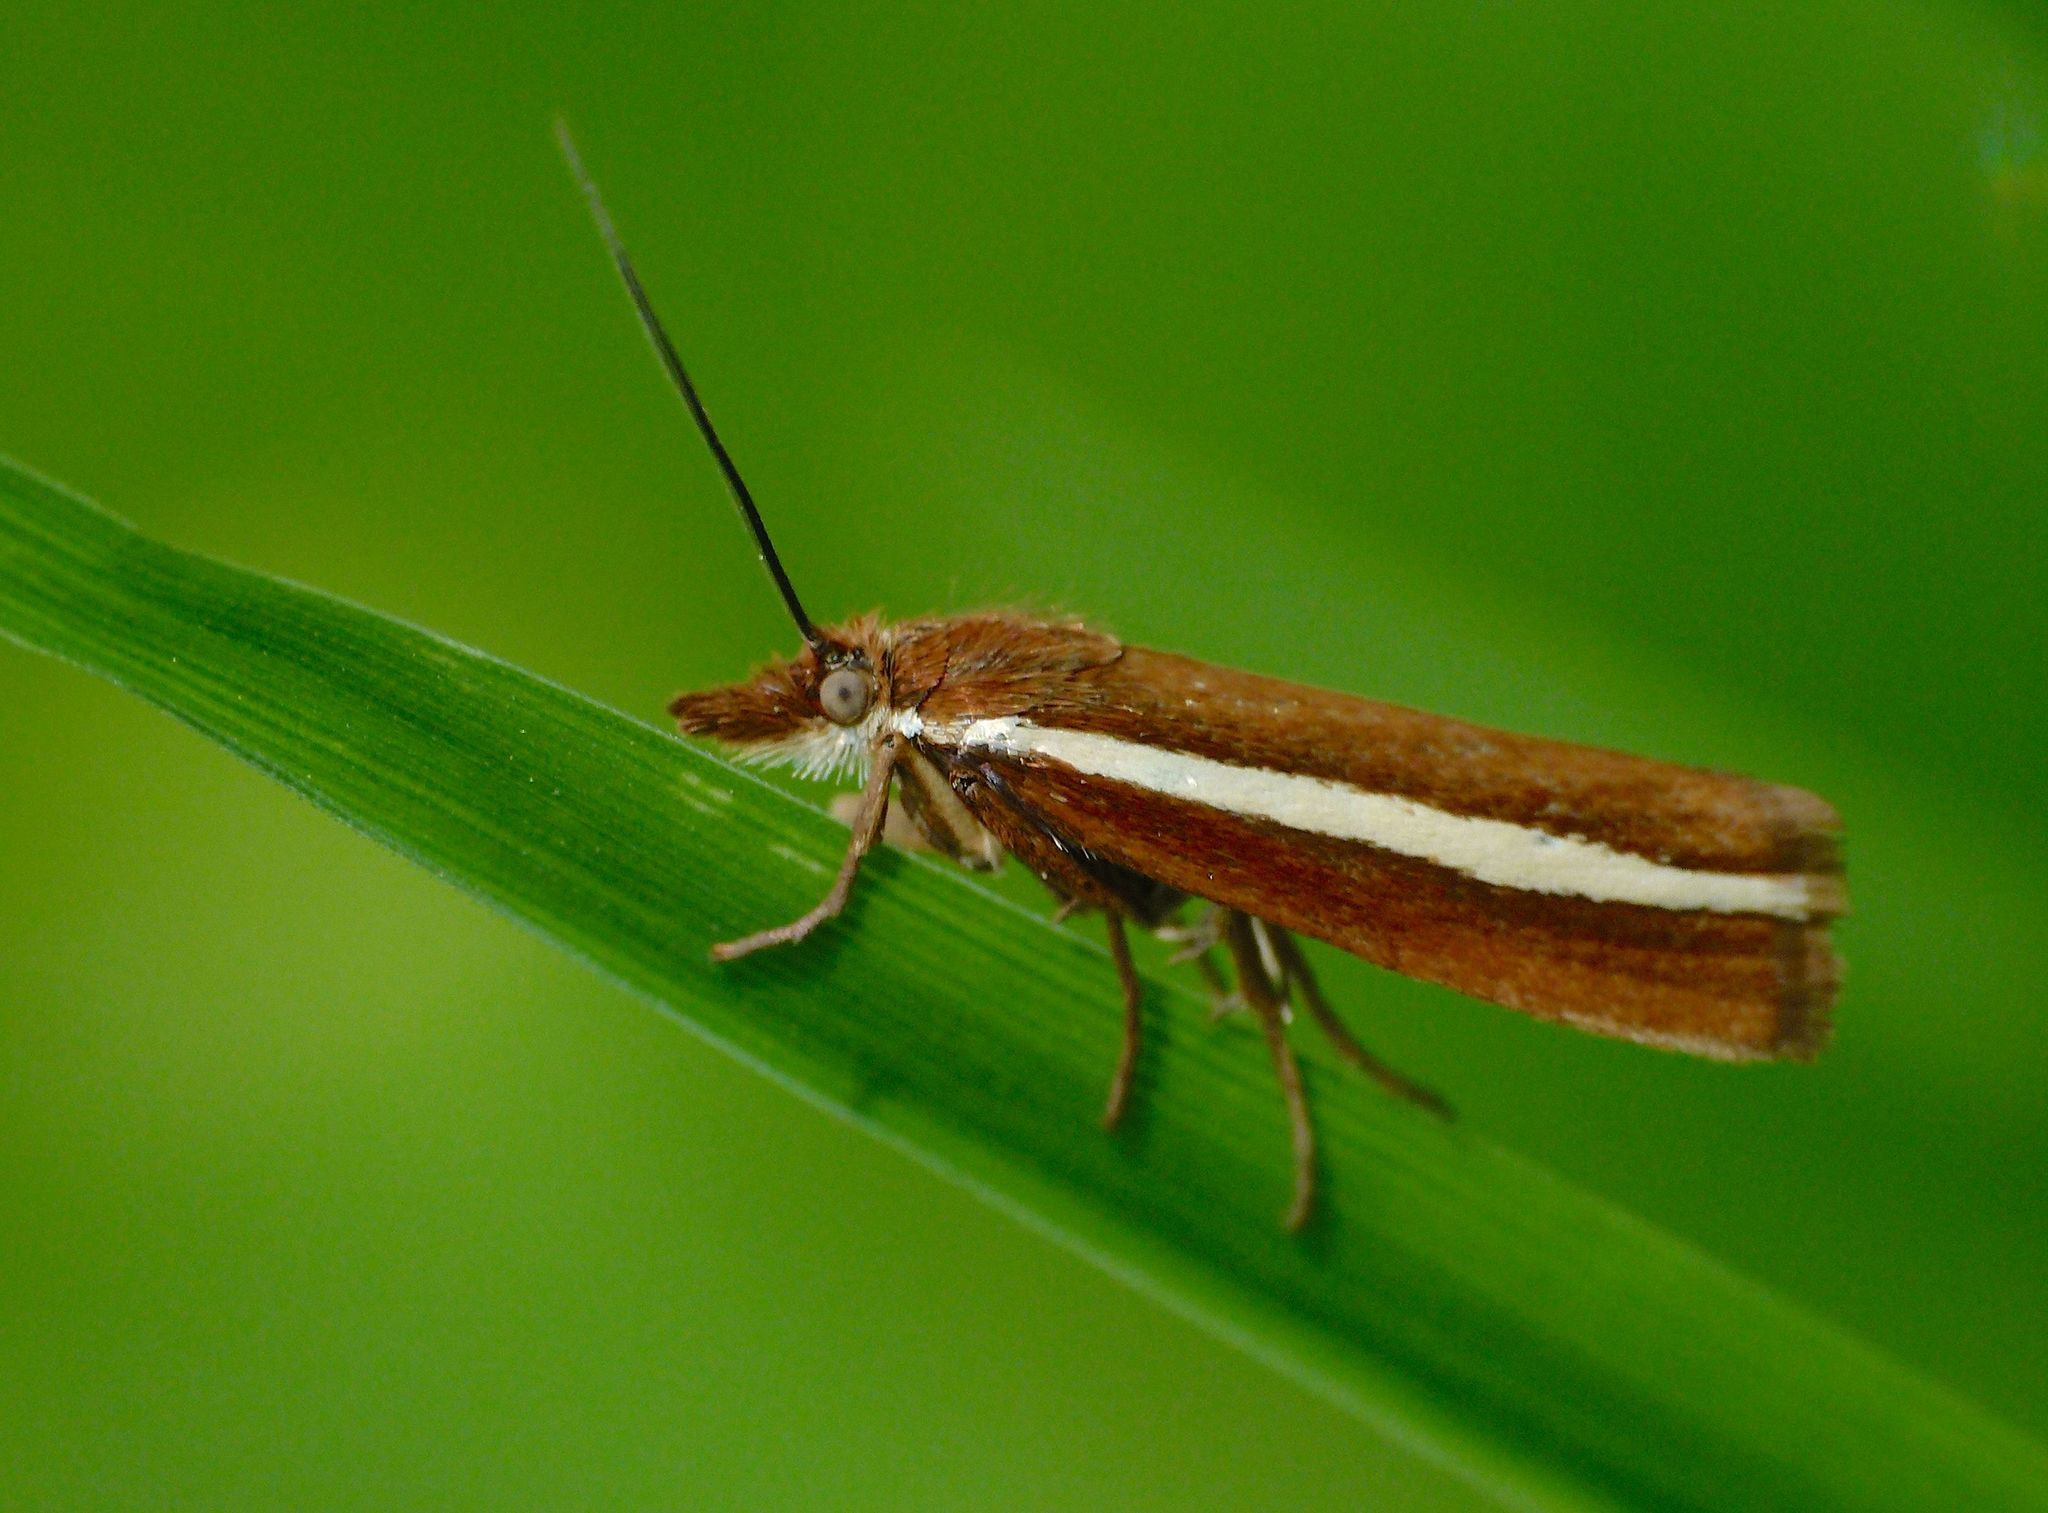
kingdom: Animalia
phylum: Arthropoda
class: Insecta
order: Lepidoptera
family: Crambidae
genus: Orocrambus
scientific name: Orocrambus aethonellus
